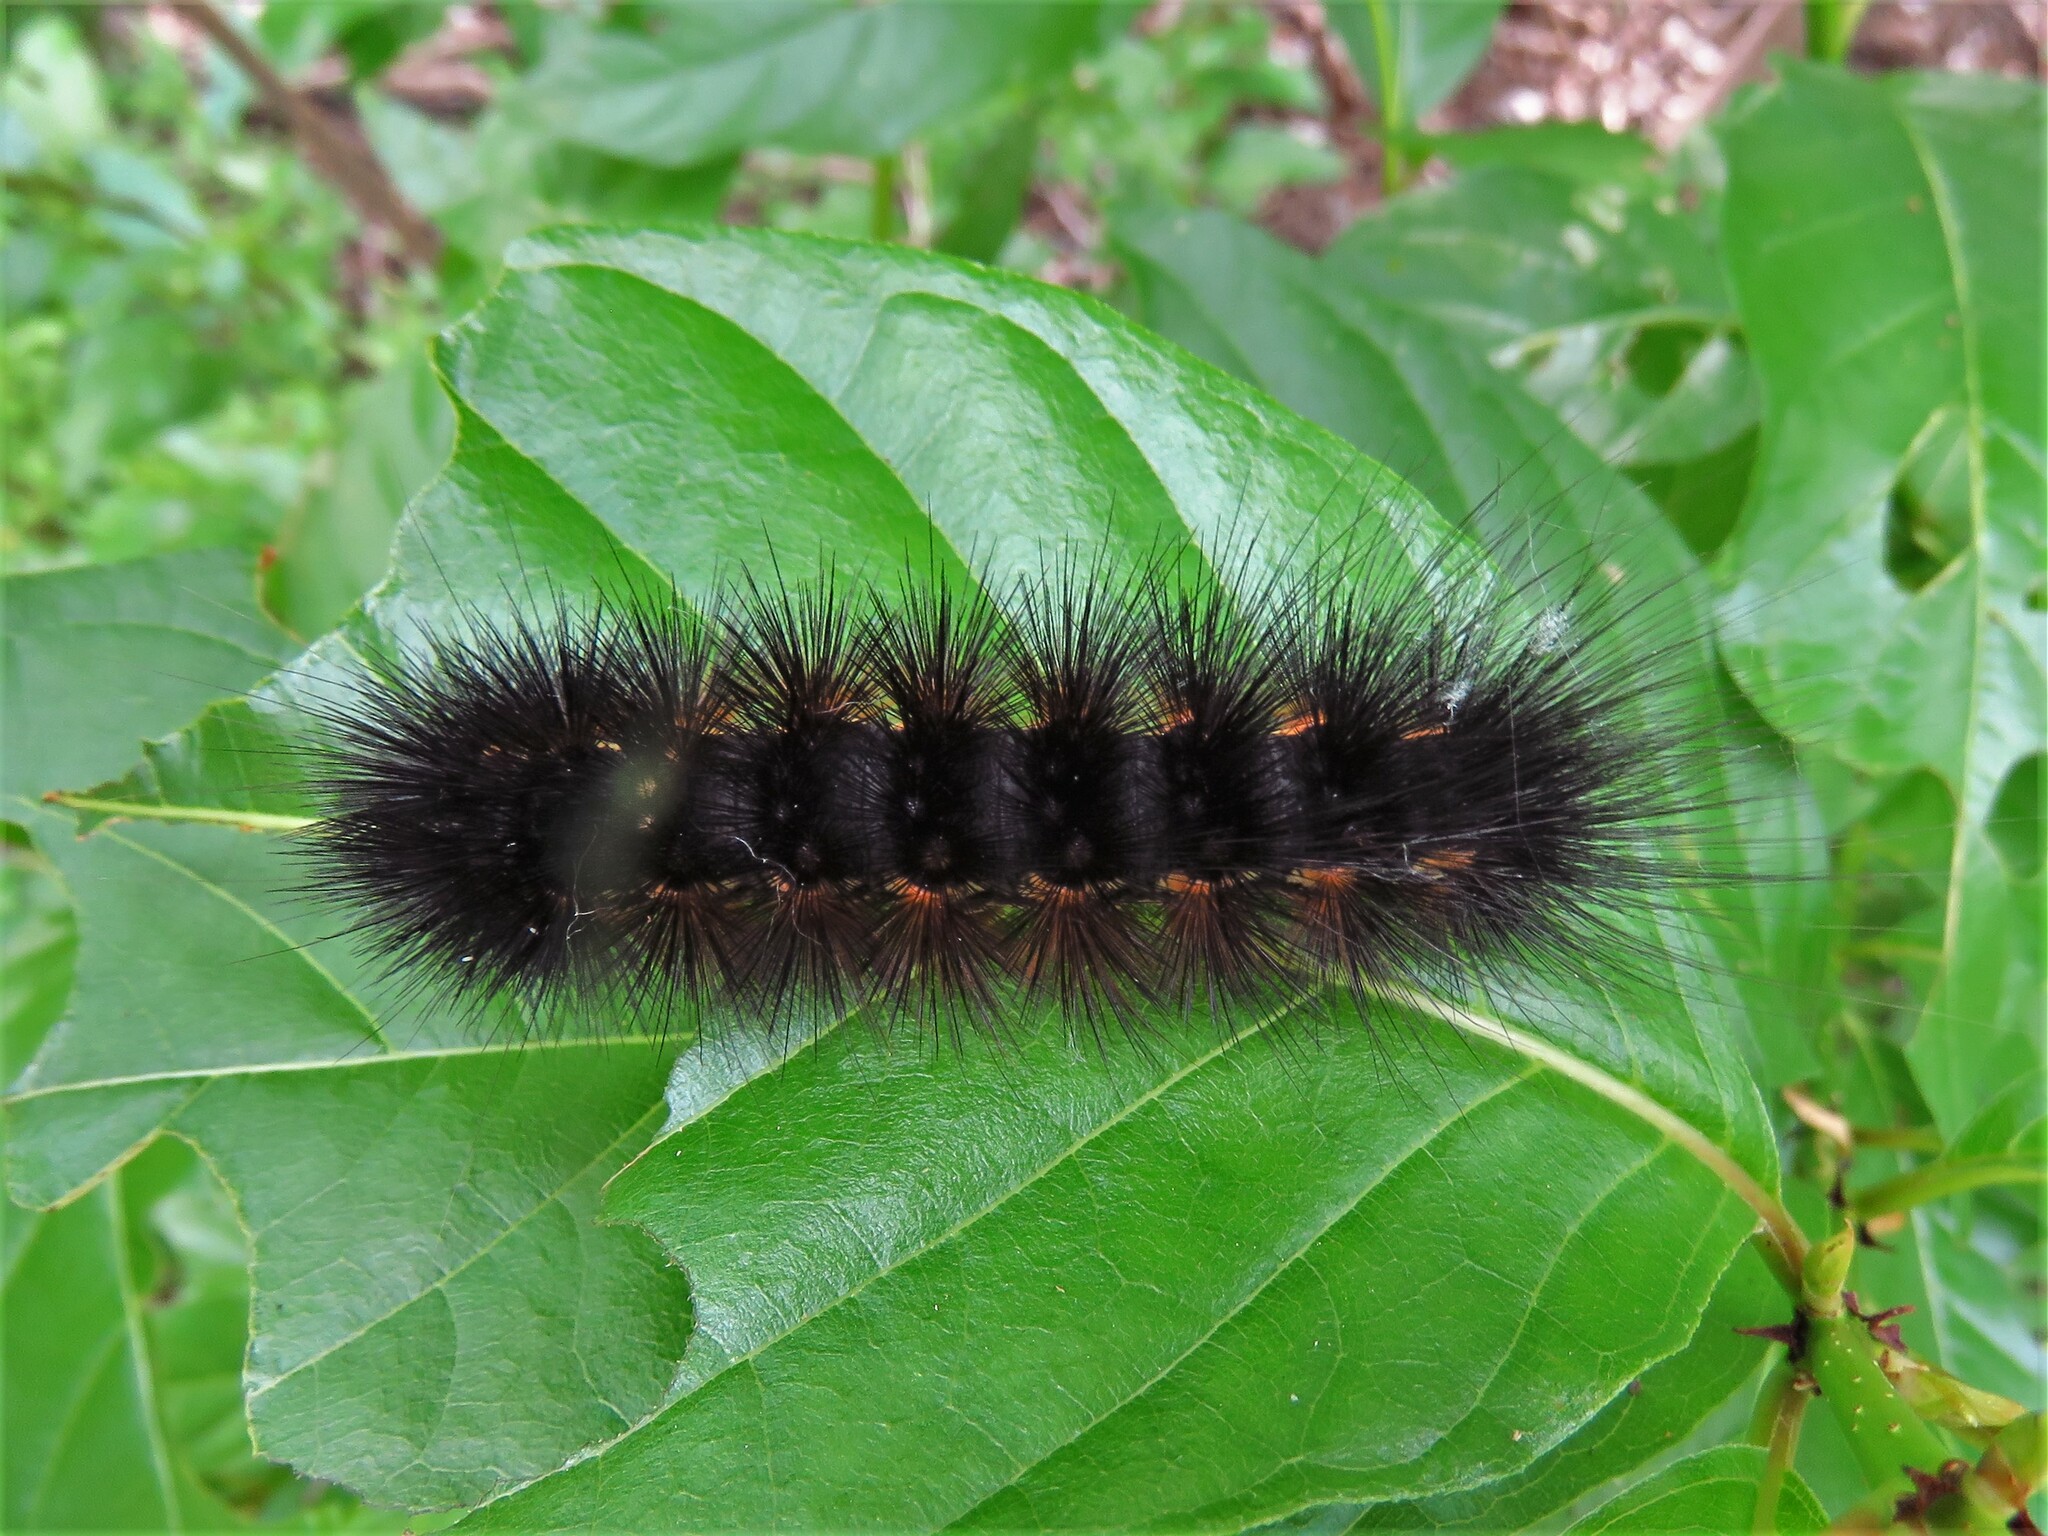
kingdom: Animalia
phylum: Arthropoda
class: Insecta
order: Lepidoptera
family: Erebidae
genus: Estigmene
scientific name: Estigmene acrea
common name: Salt marsh moth
